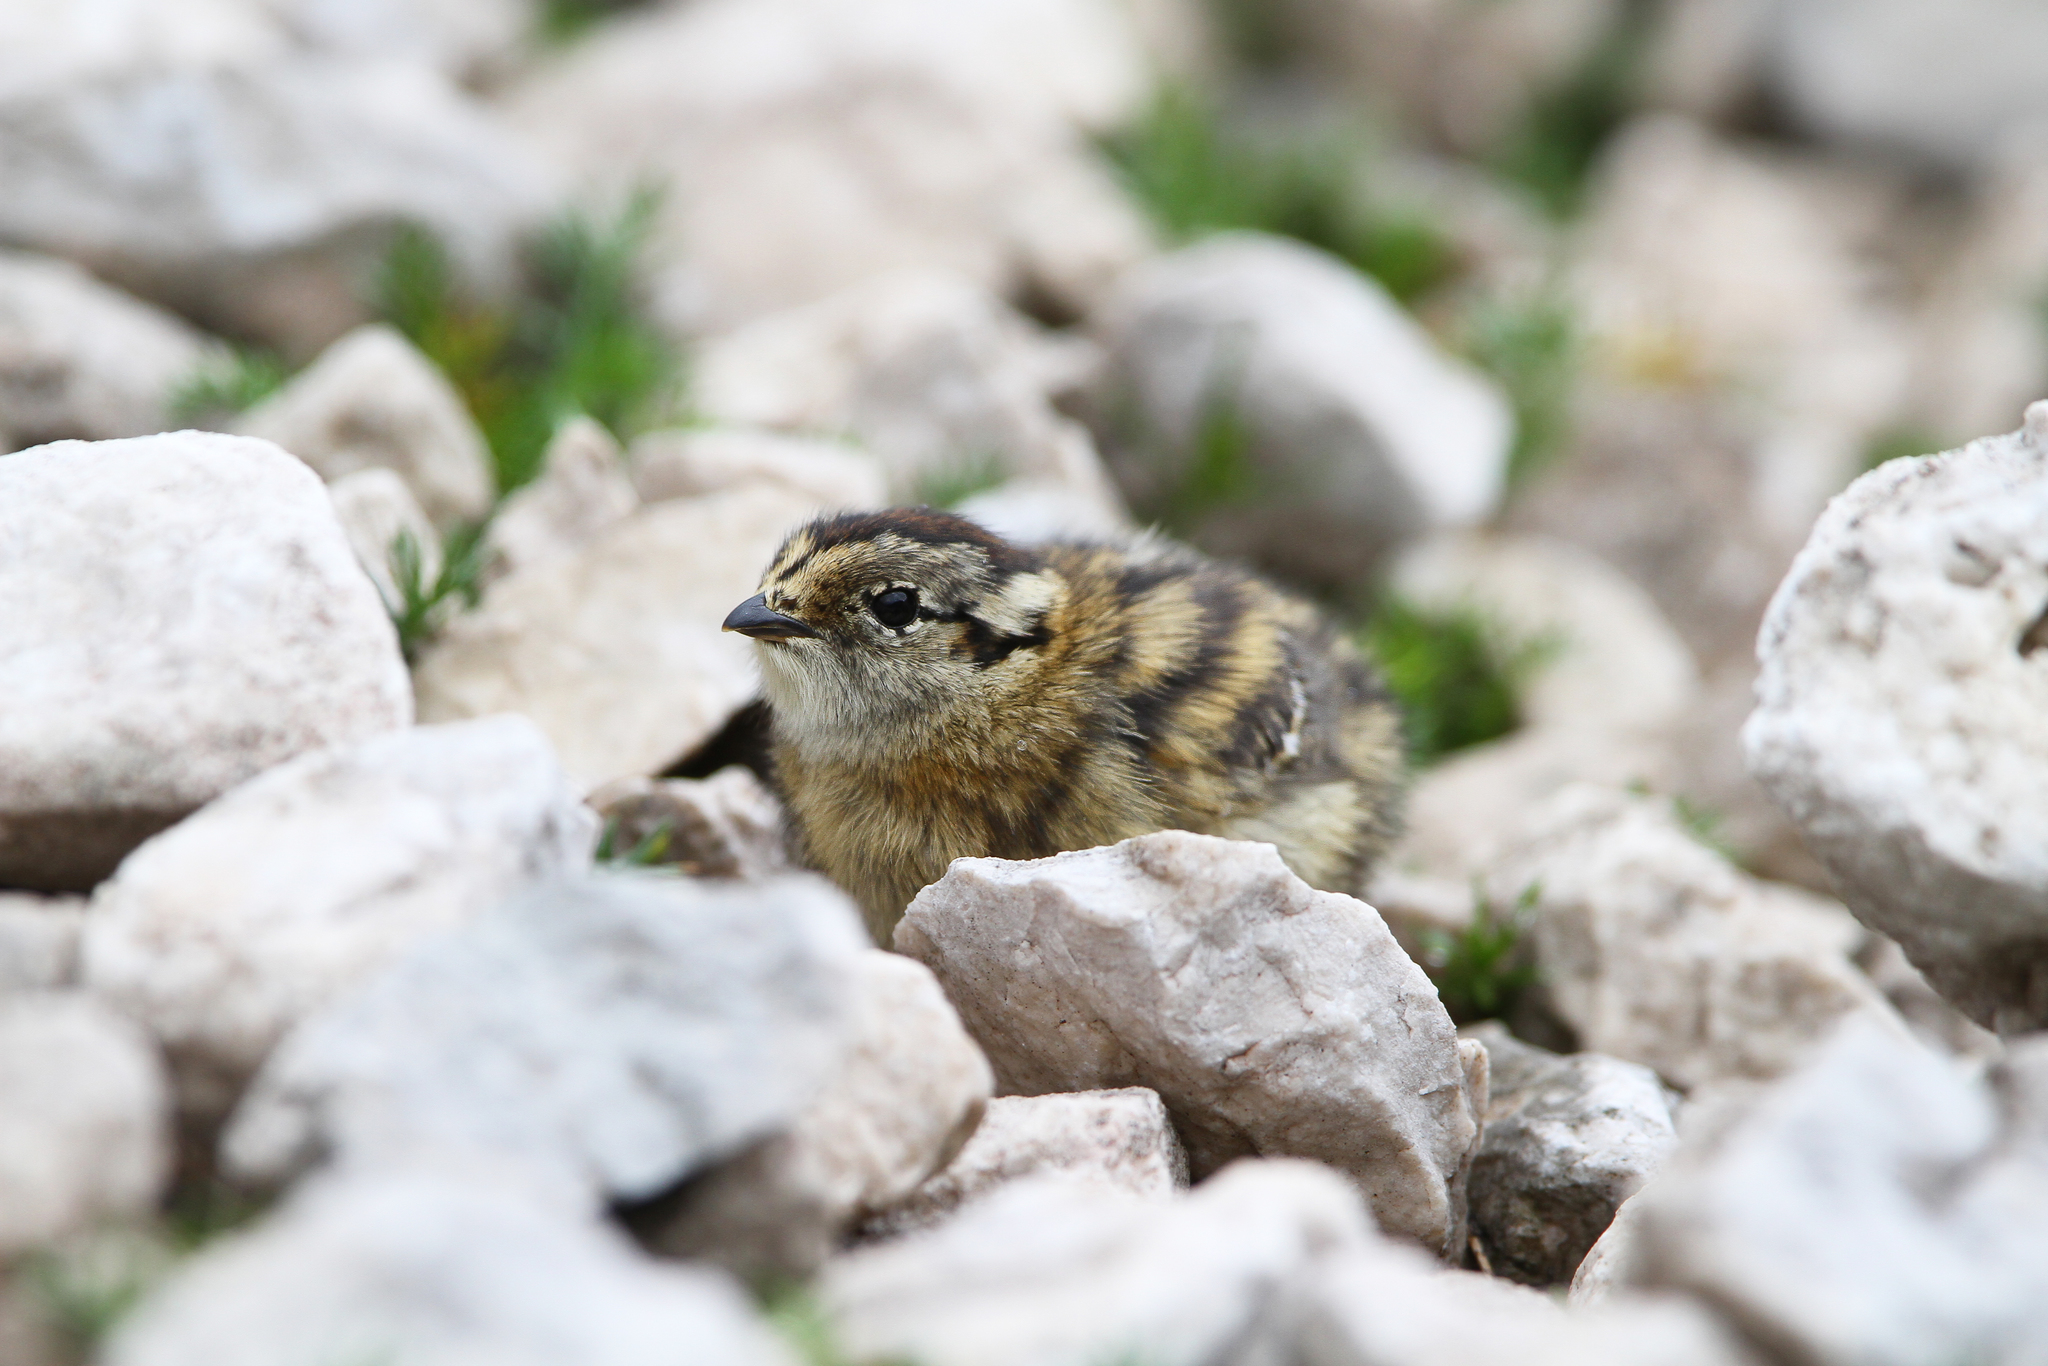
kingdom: Animalia
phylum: Chordata
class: Aves
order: Galliformes
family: Phasianidae
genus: Lagopus
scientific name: Lagopus muta
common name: Rock ptarmigan
